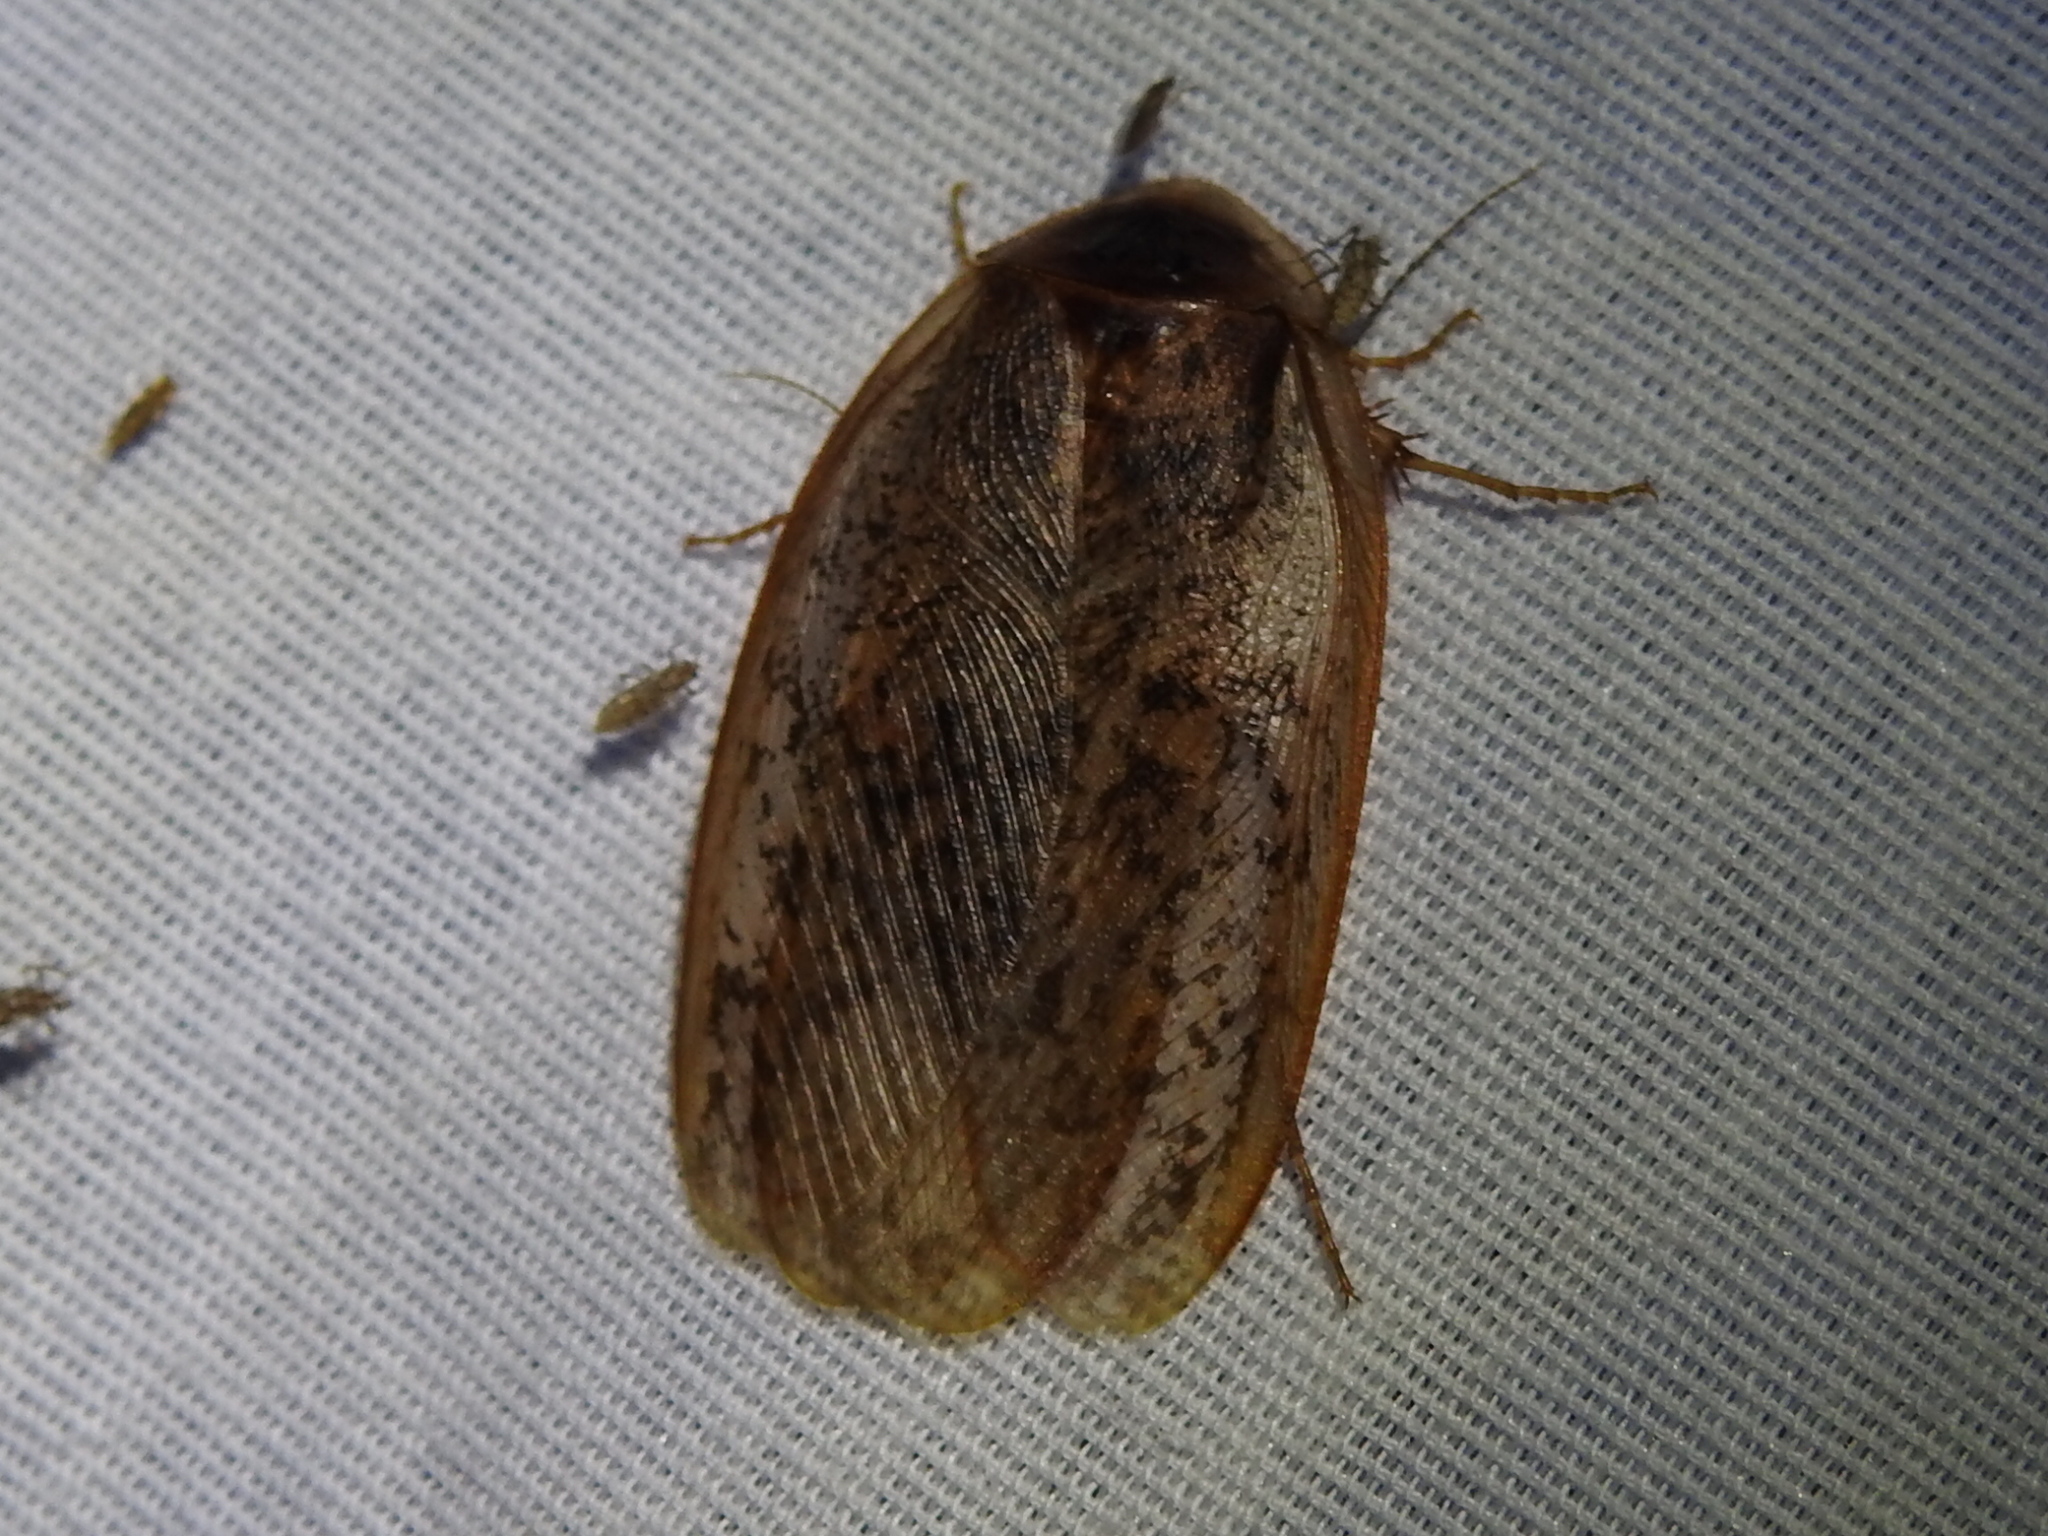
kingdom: Animalia
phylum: Arthropoda
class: Insecta
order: Blattodea
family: Corydiidae
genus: Arenivaga
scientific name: Arenivaga bolliana
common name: Boll's sand cockroach
